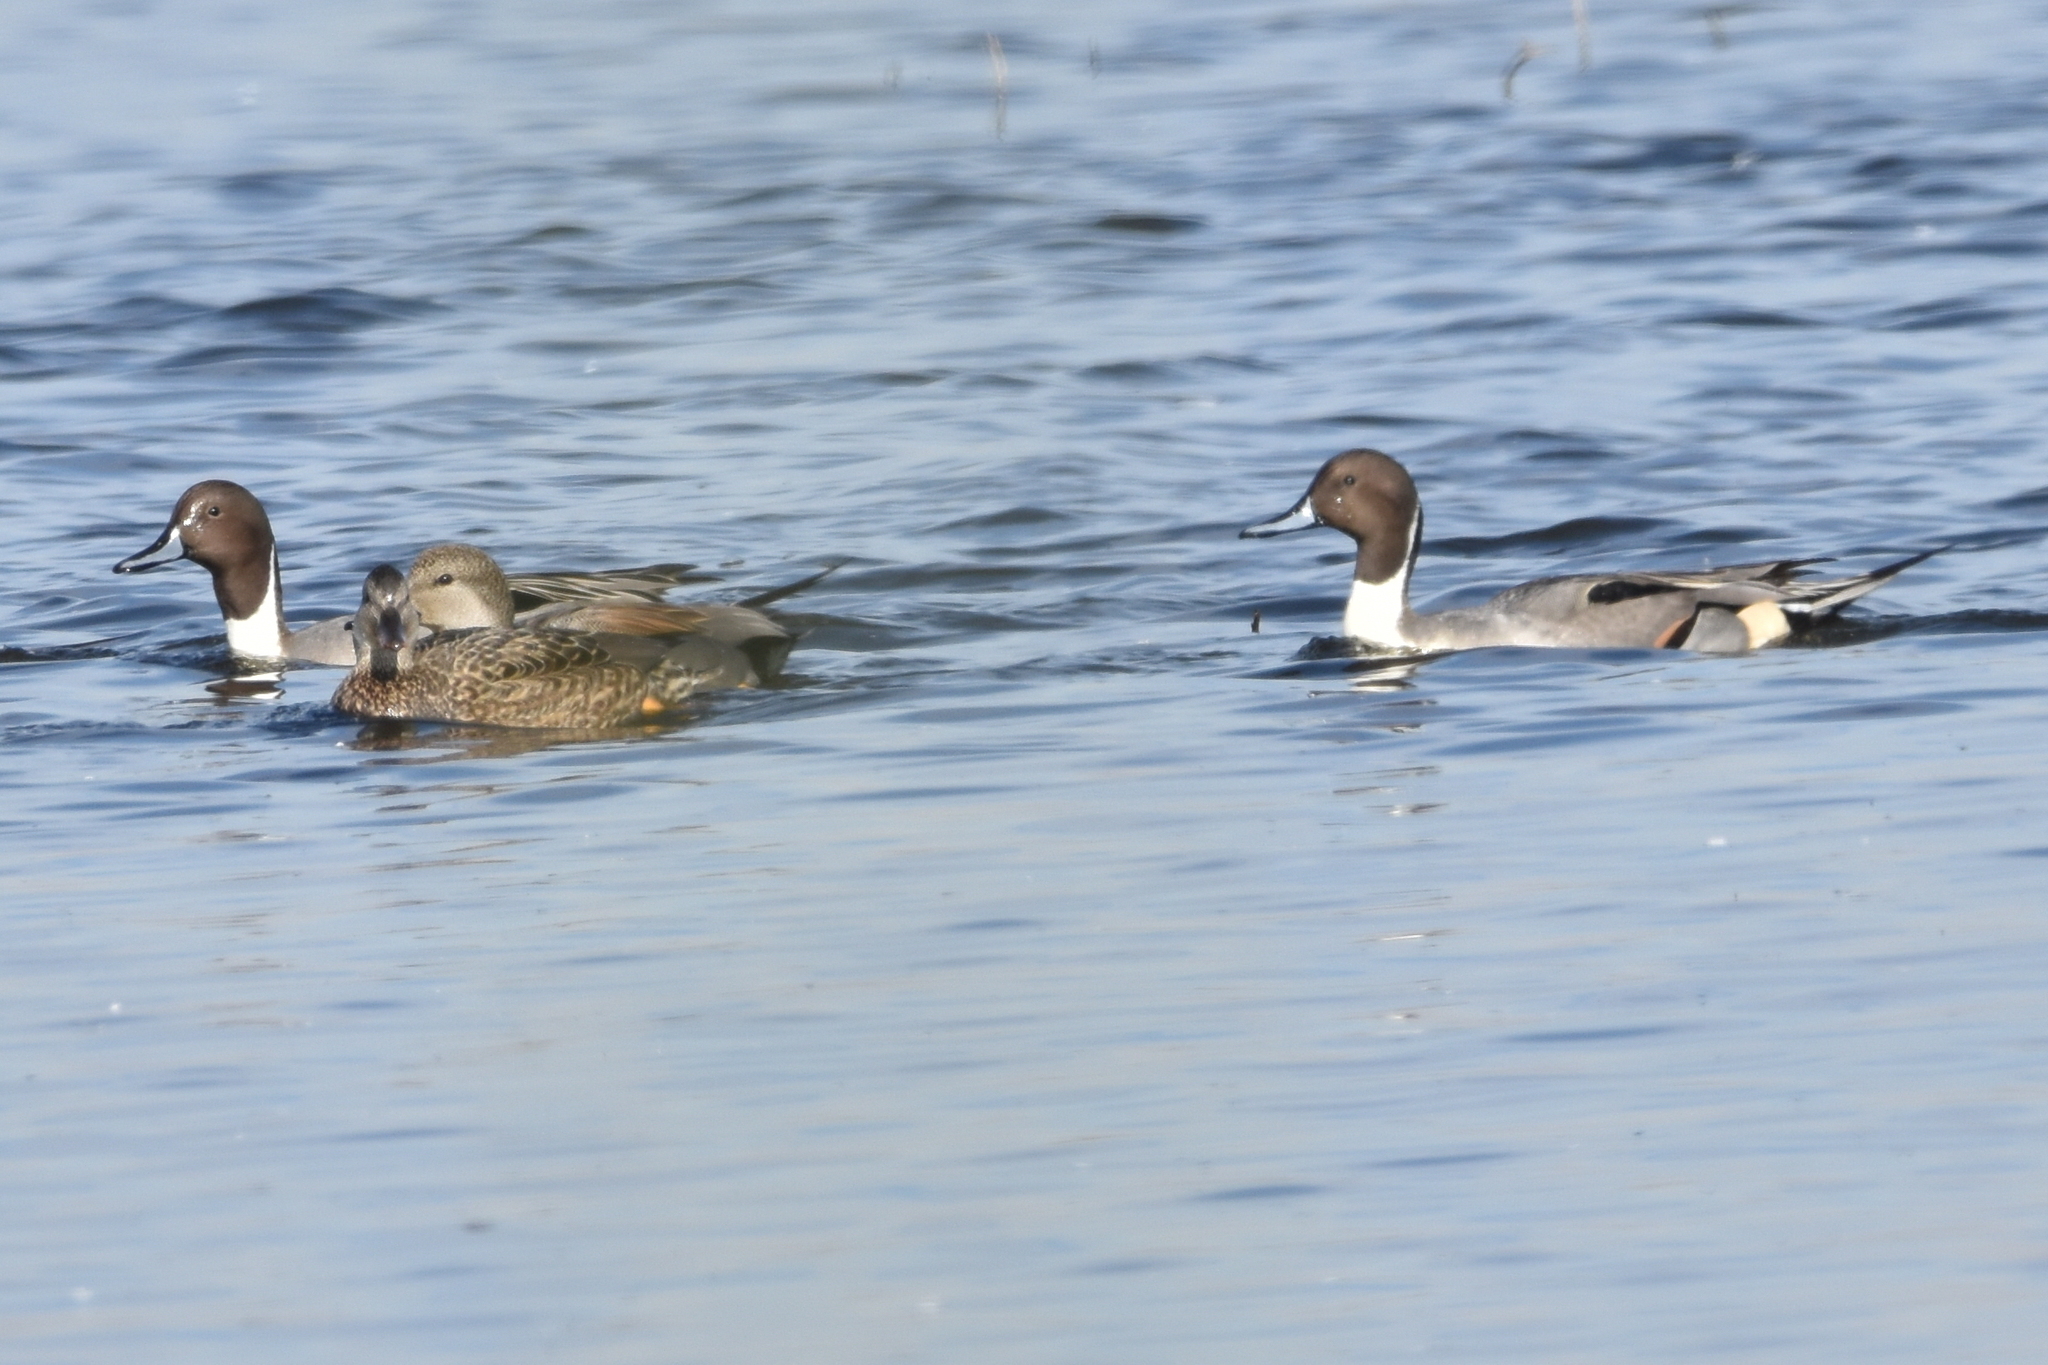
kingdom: Animalia
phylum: Chordata
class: Aves
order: Anseriformes
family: Anatidae
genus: Anas
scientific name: Anas acuta
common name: Northern pintail
